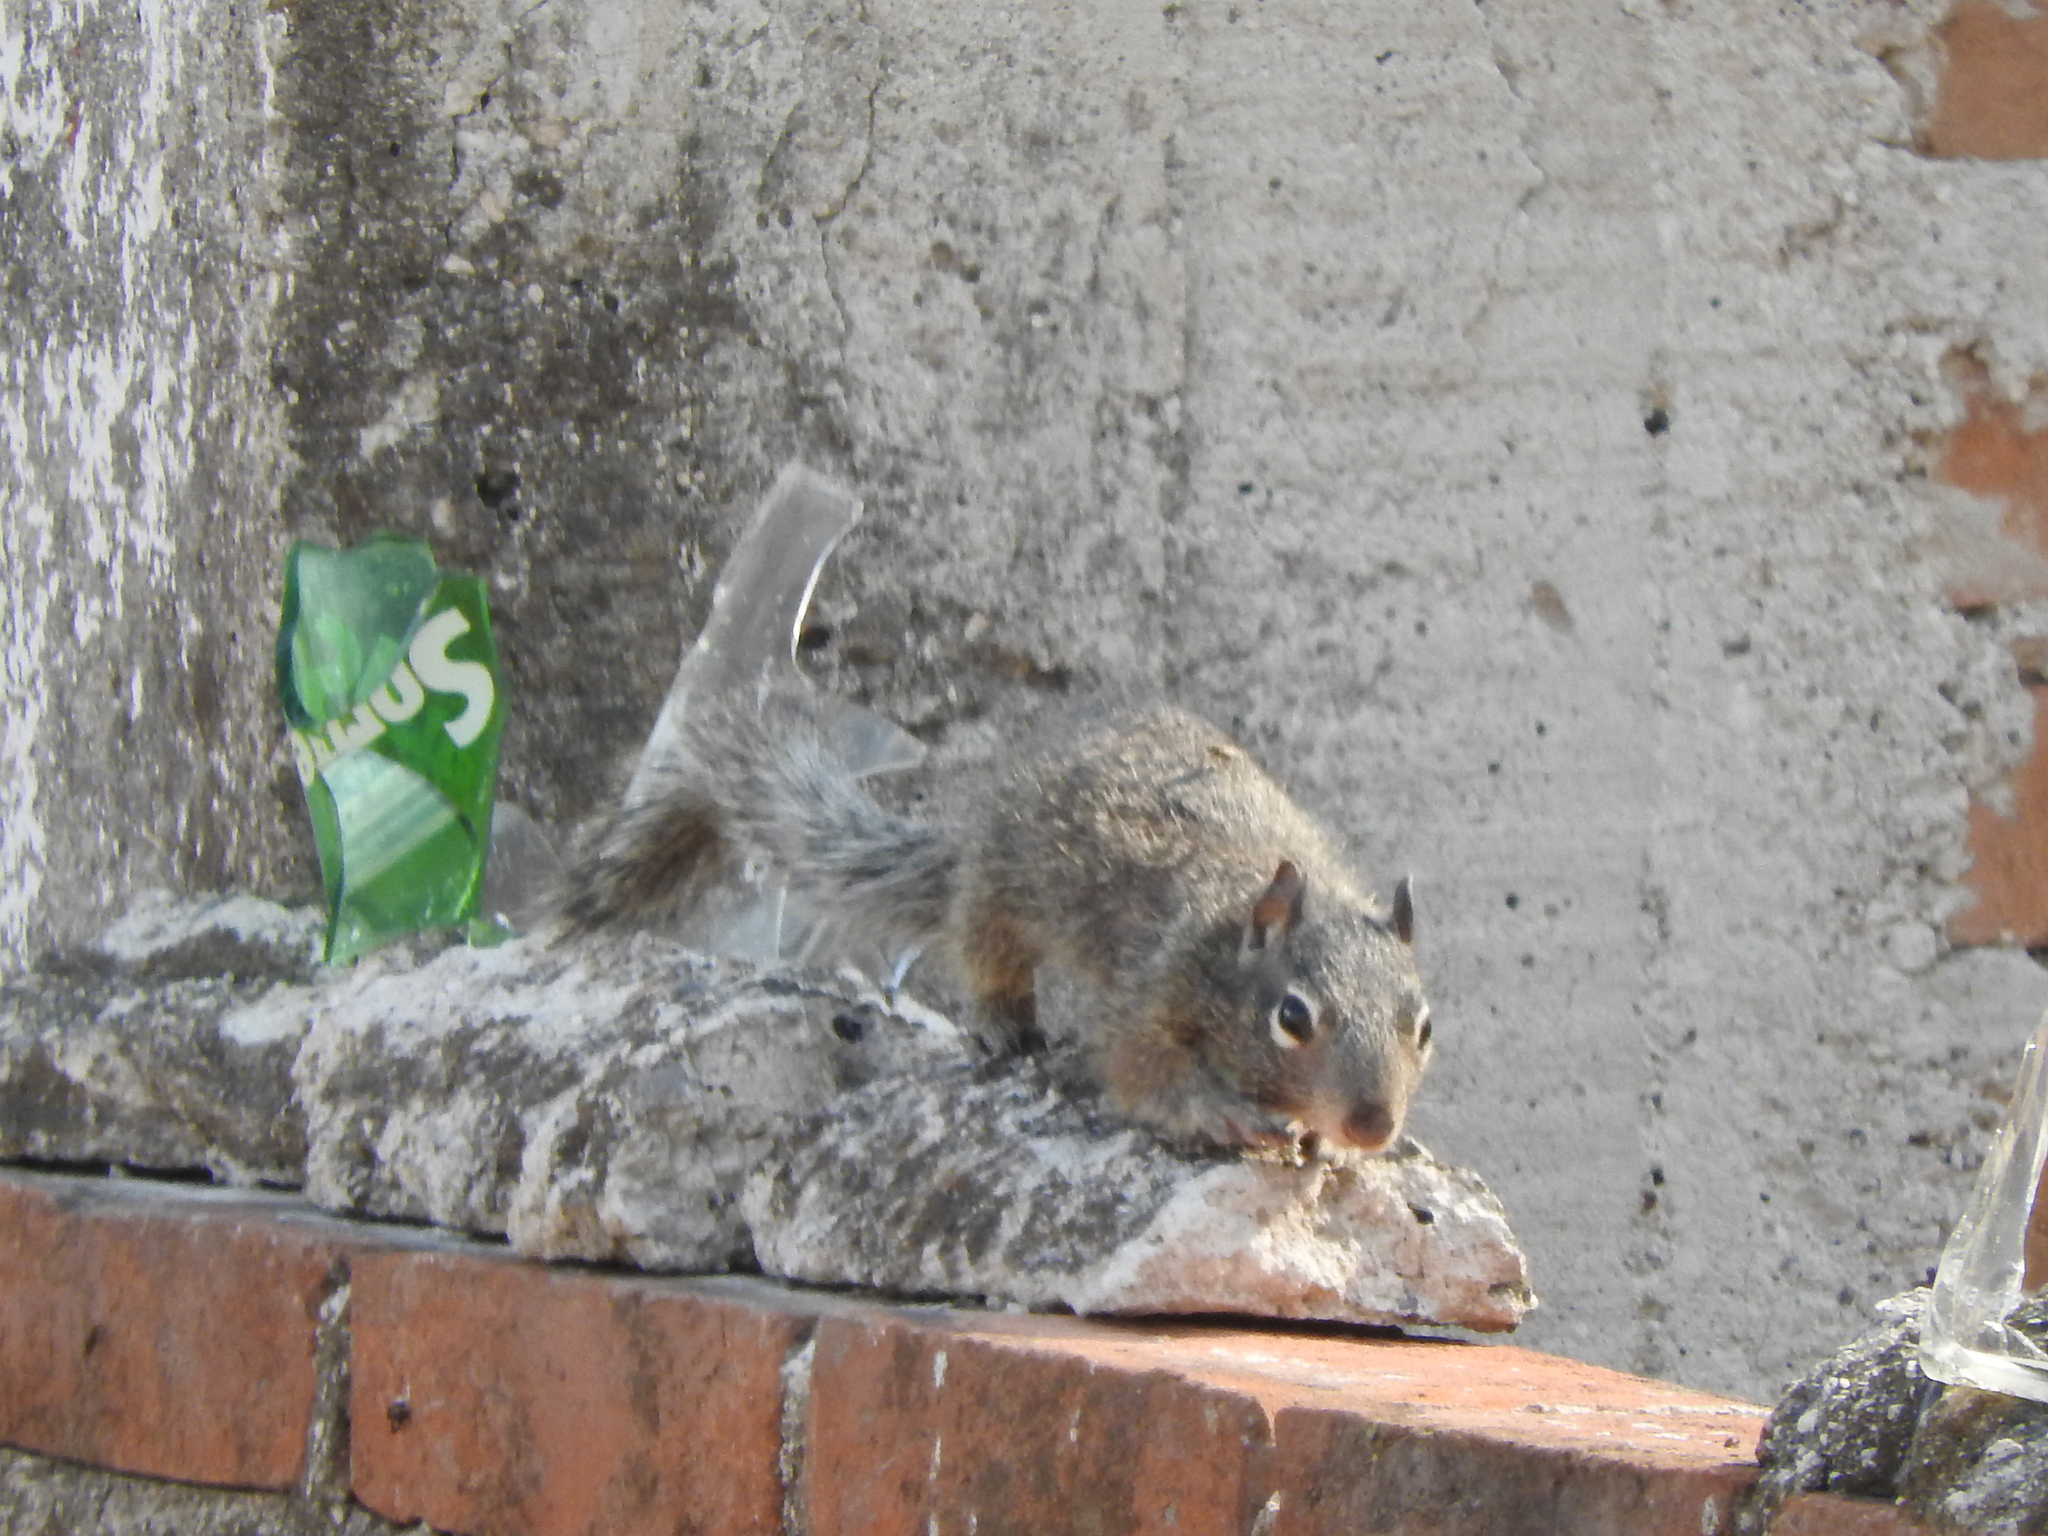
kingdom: Animalia
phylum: Chordata
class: Mammalia
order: Rodentia
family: Sciuridae
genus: Otospermophilus
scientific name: Otospermophilus variegatus
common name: Rock squirrel
